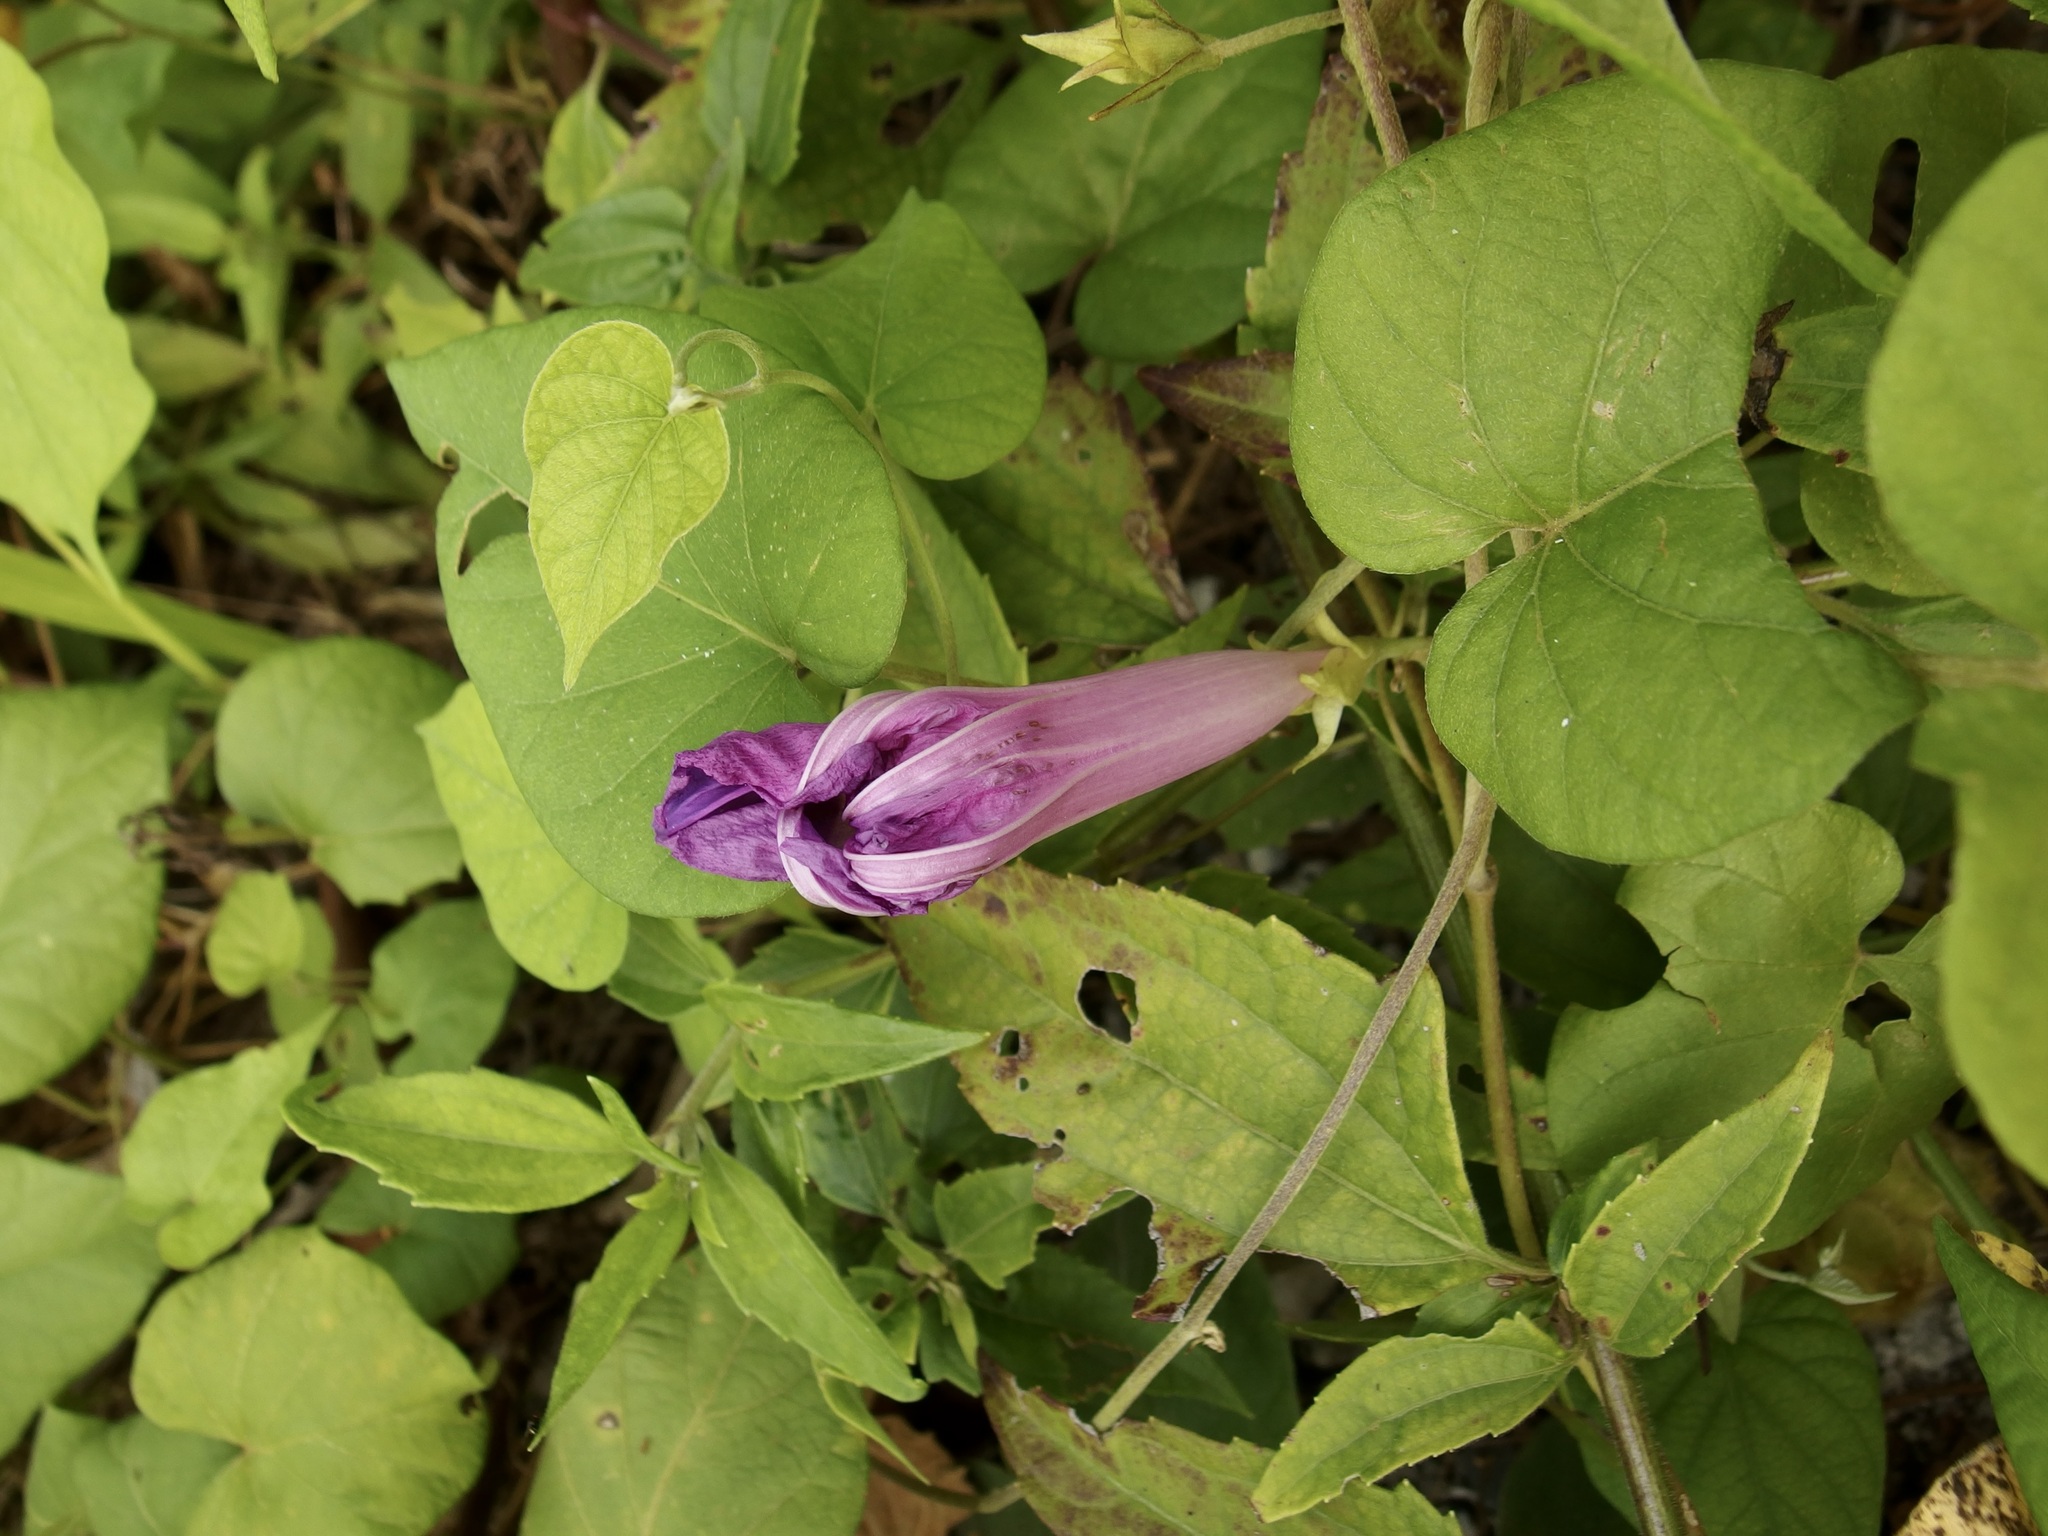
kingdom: Plantae
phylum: Tracheophyta
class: Magnoliopsida
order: Solanales
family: Convolvulaceae
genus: Ipomoea
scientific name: Ipomoea indica
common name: Blue dawnflower
